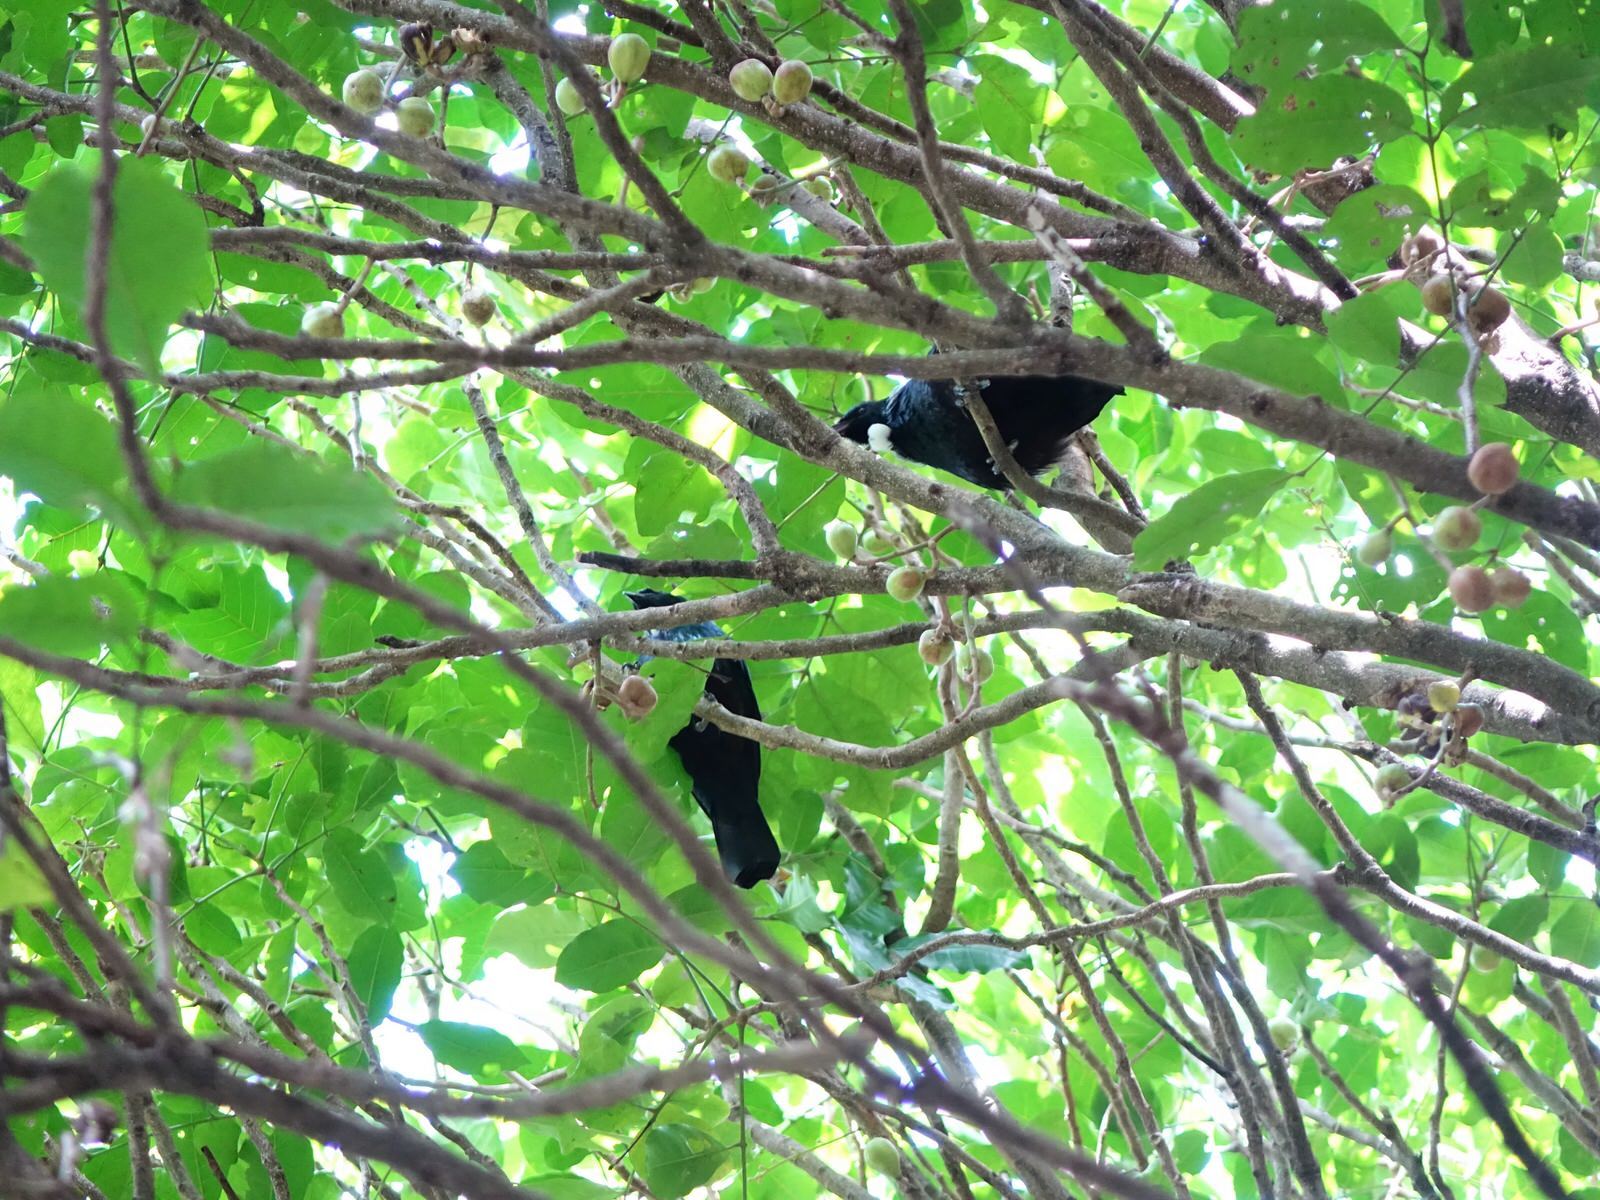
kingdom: Animalia
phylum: Chordata
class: Aves
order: Passeriformes
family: Meliphagidae
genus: Prosthemadera
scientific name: Prosthemadera novaeseelandiae
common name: Tui
